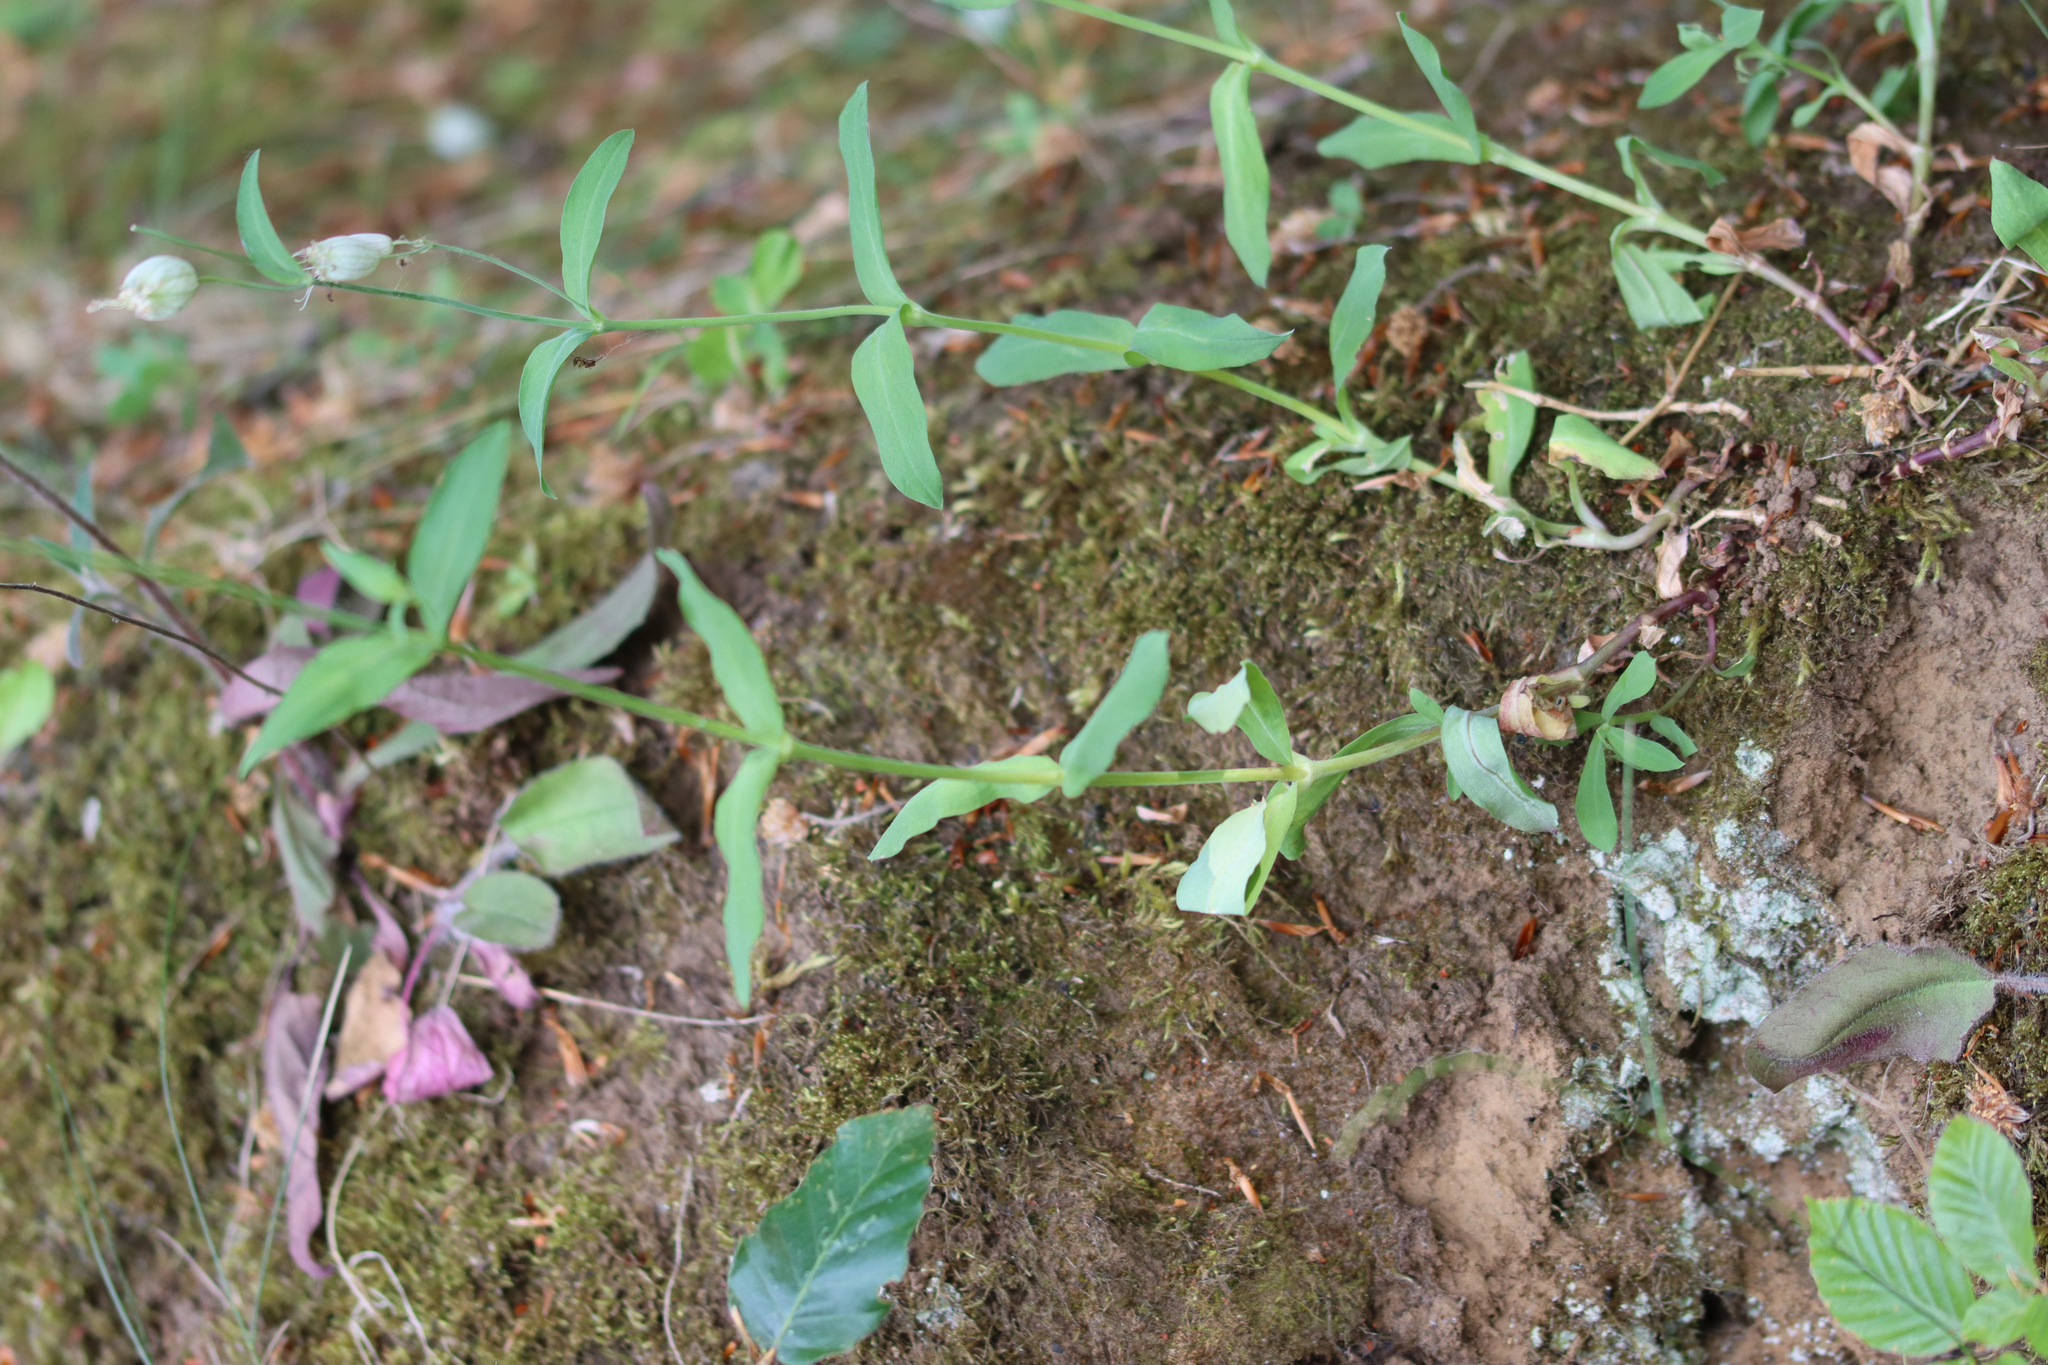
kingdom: Plantae
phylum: Tracheophyta
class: Magnoliopsida
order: Caryophyllales
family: Caryophyllaceae
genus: Silene
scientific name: Silene vulgaris
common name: Bladder campion
